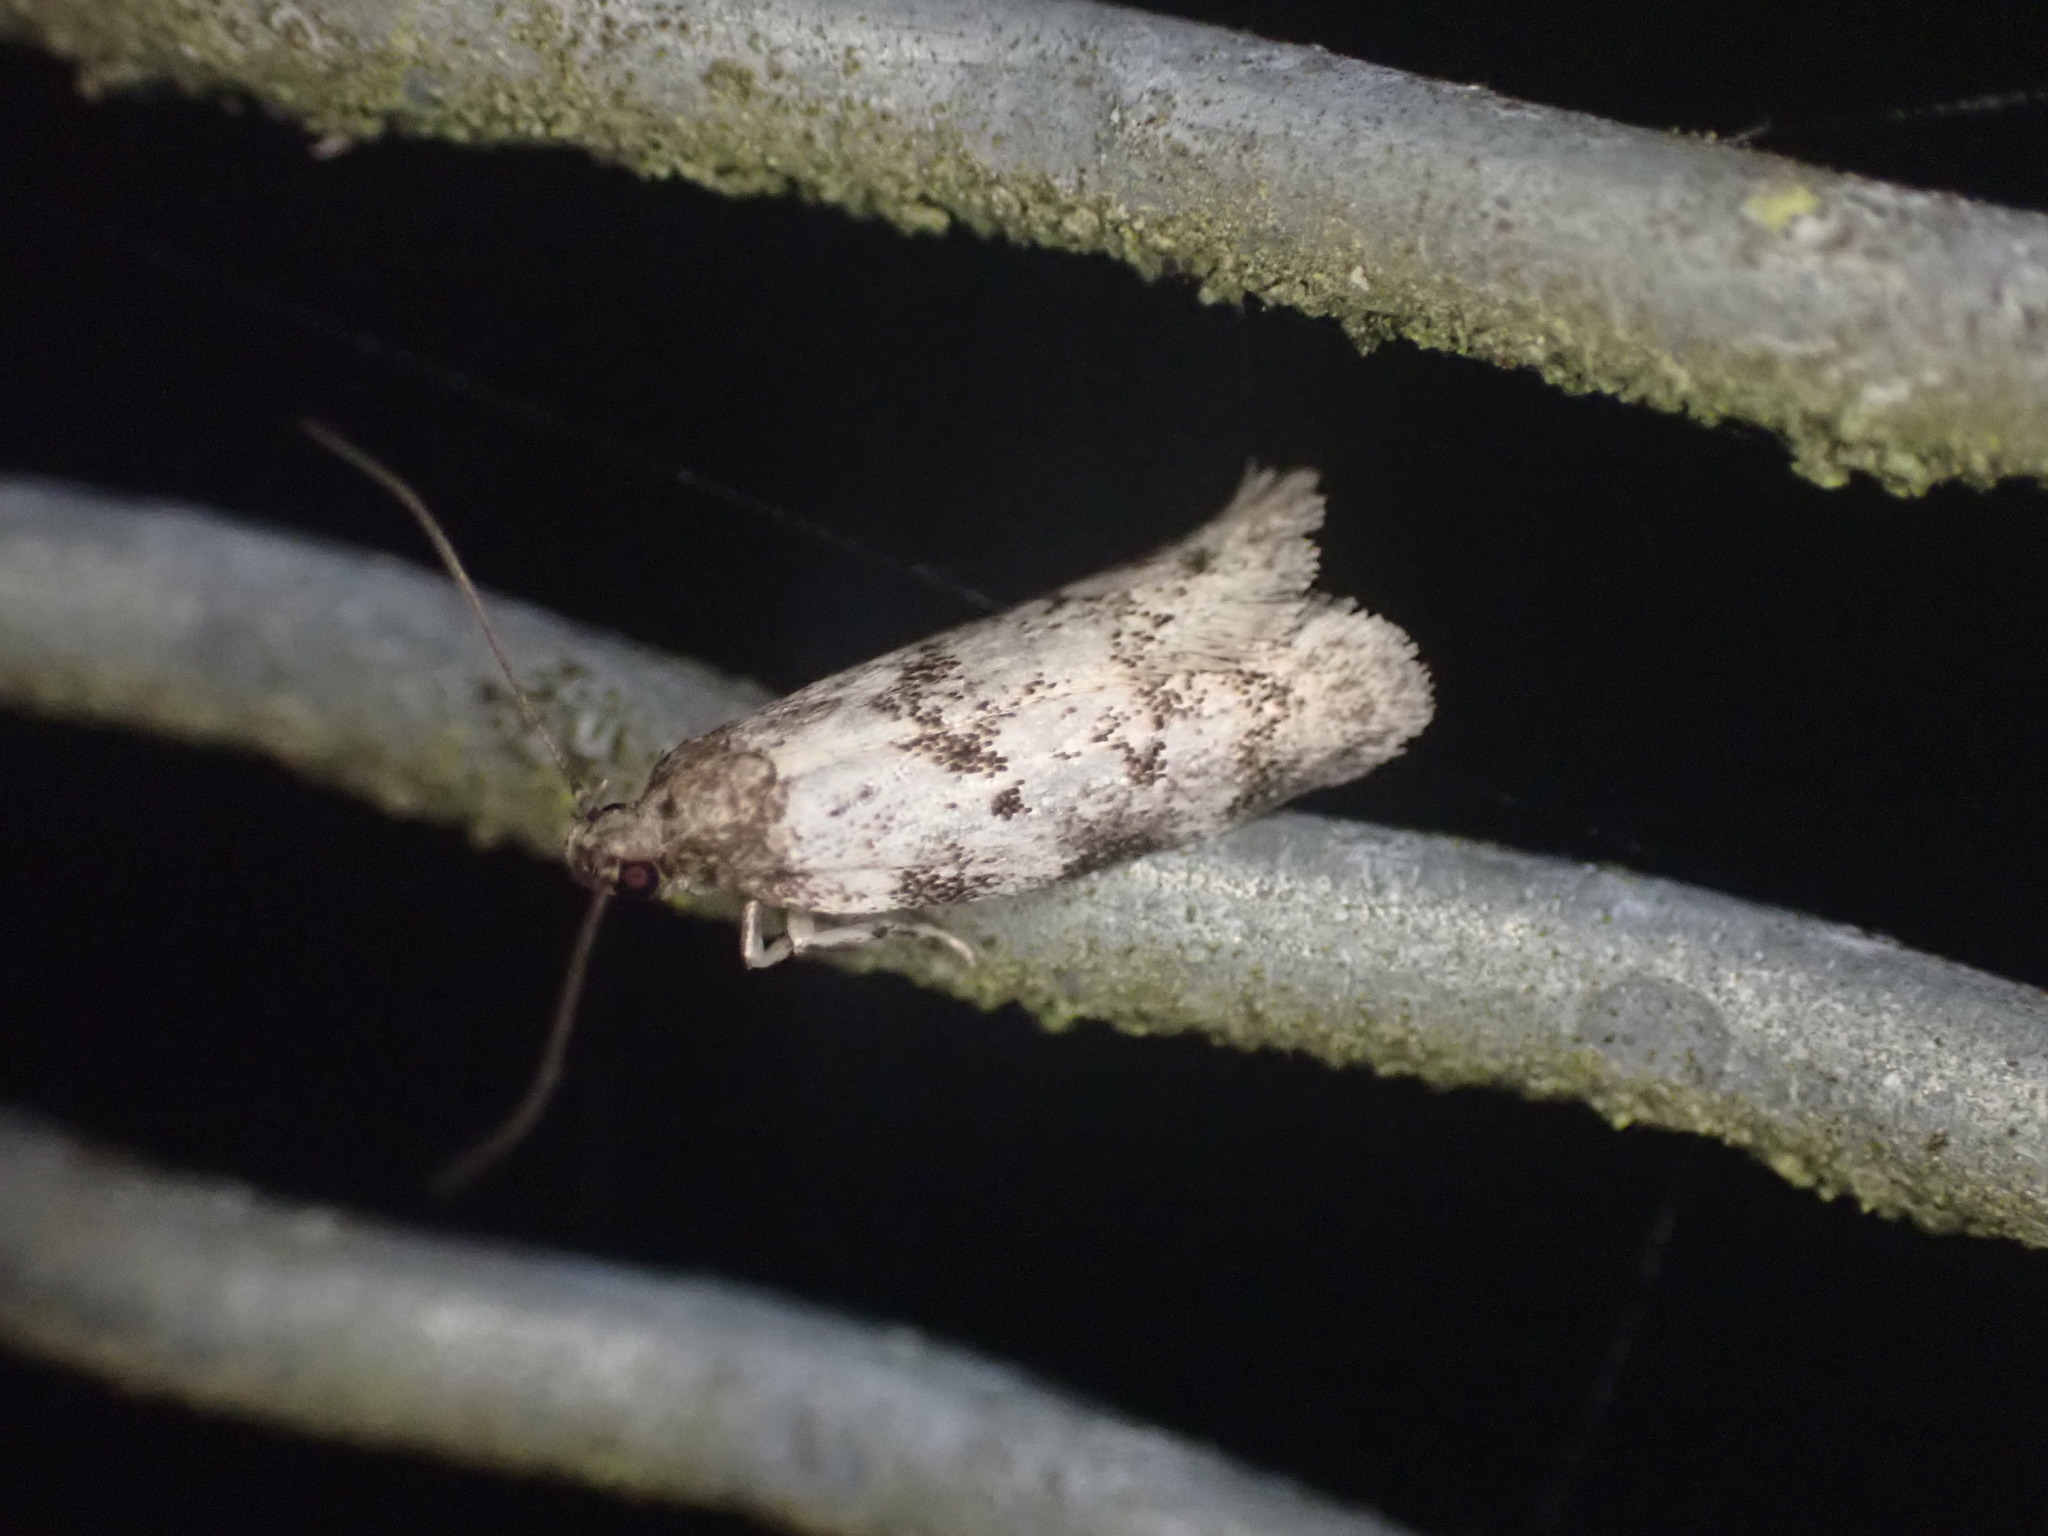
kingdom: Animalia
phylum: Arthropoda
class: Insecta
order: Lepidoptera
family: Oecophoridae
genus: Trachypepla
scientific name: Trachypepla photinella
